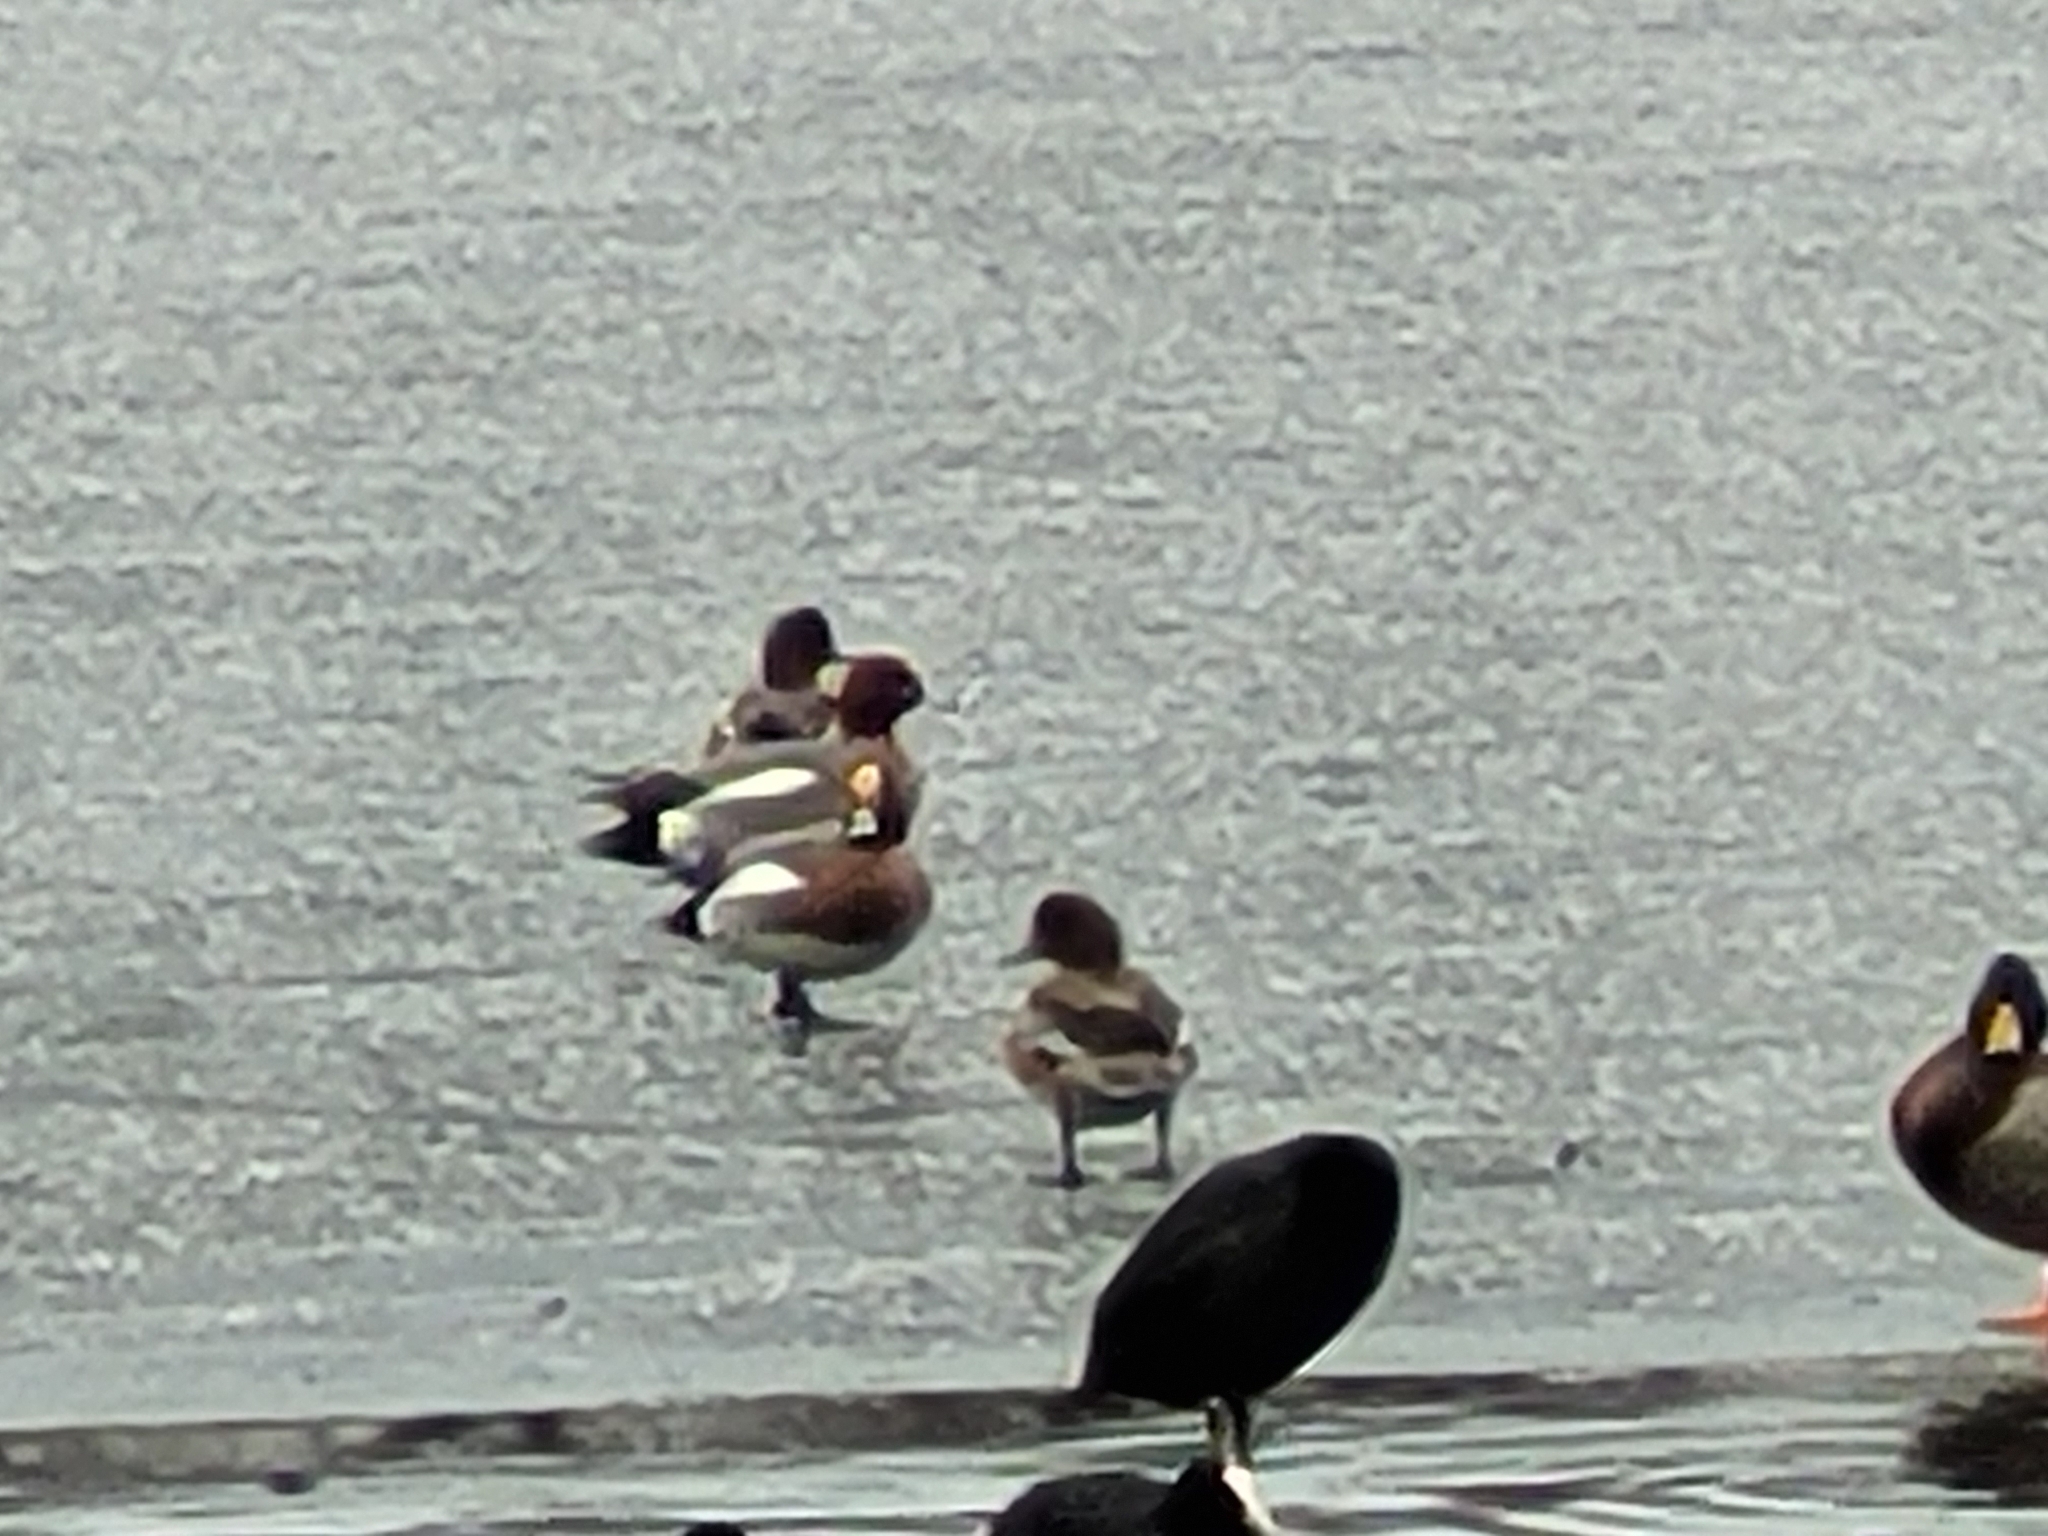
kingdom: Animalia
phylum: Chordata
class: Aves
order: Anseriformes
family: Anatidae
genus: Mareca
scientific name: Mareca penelope
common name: Eurasian wigeon
